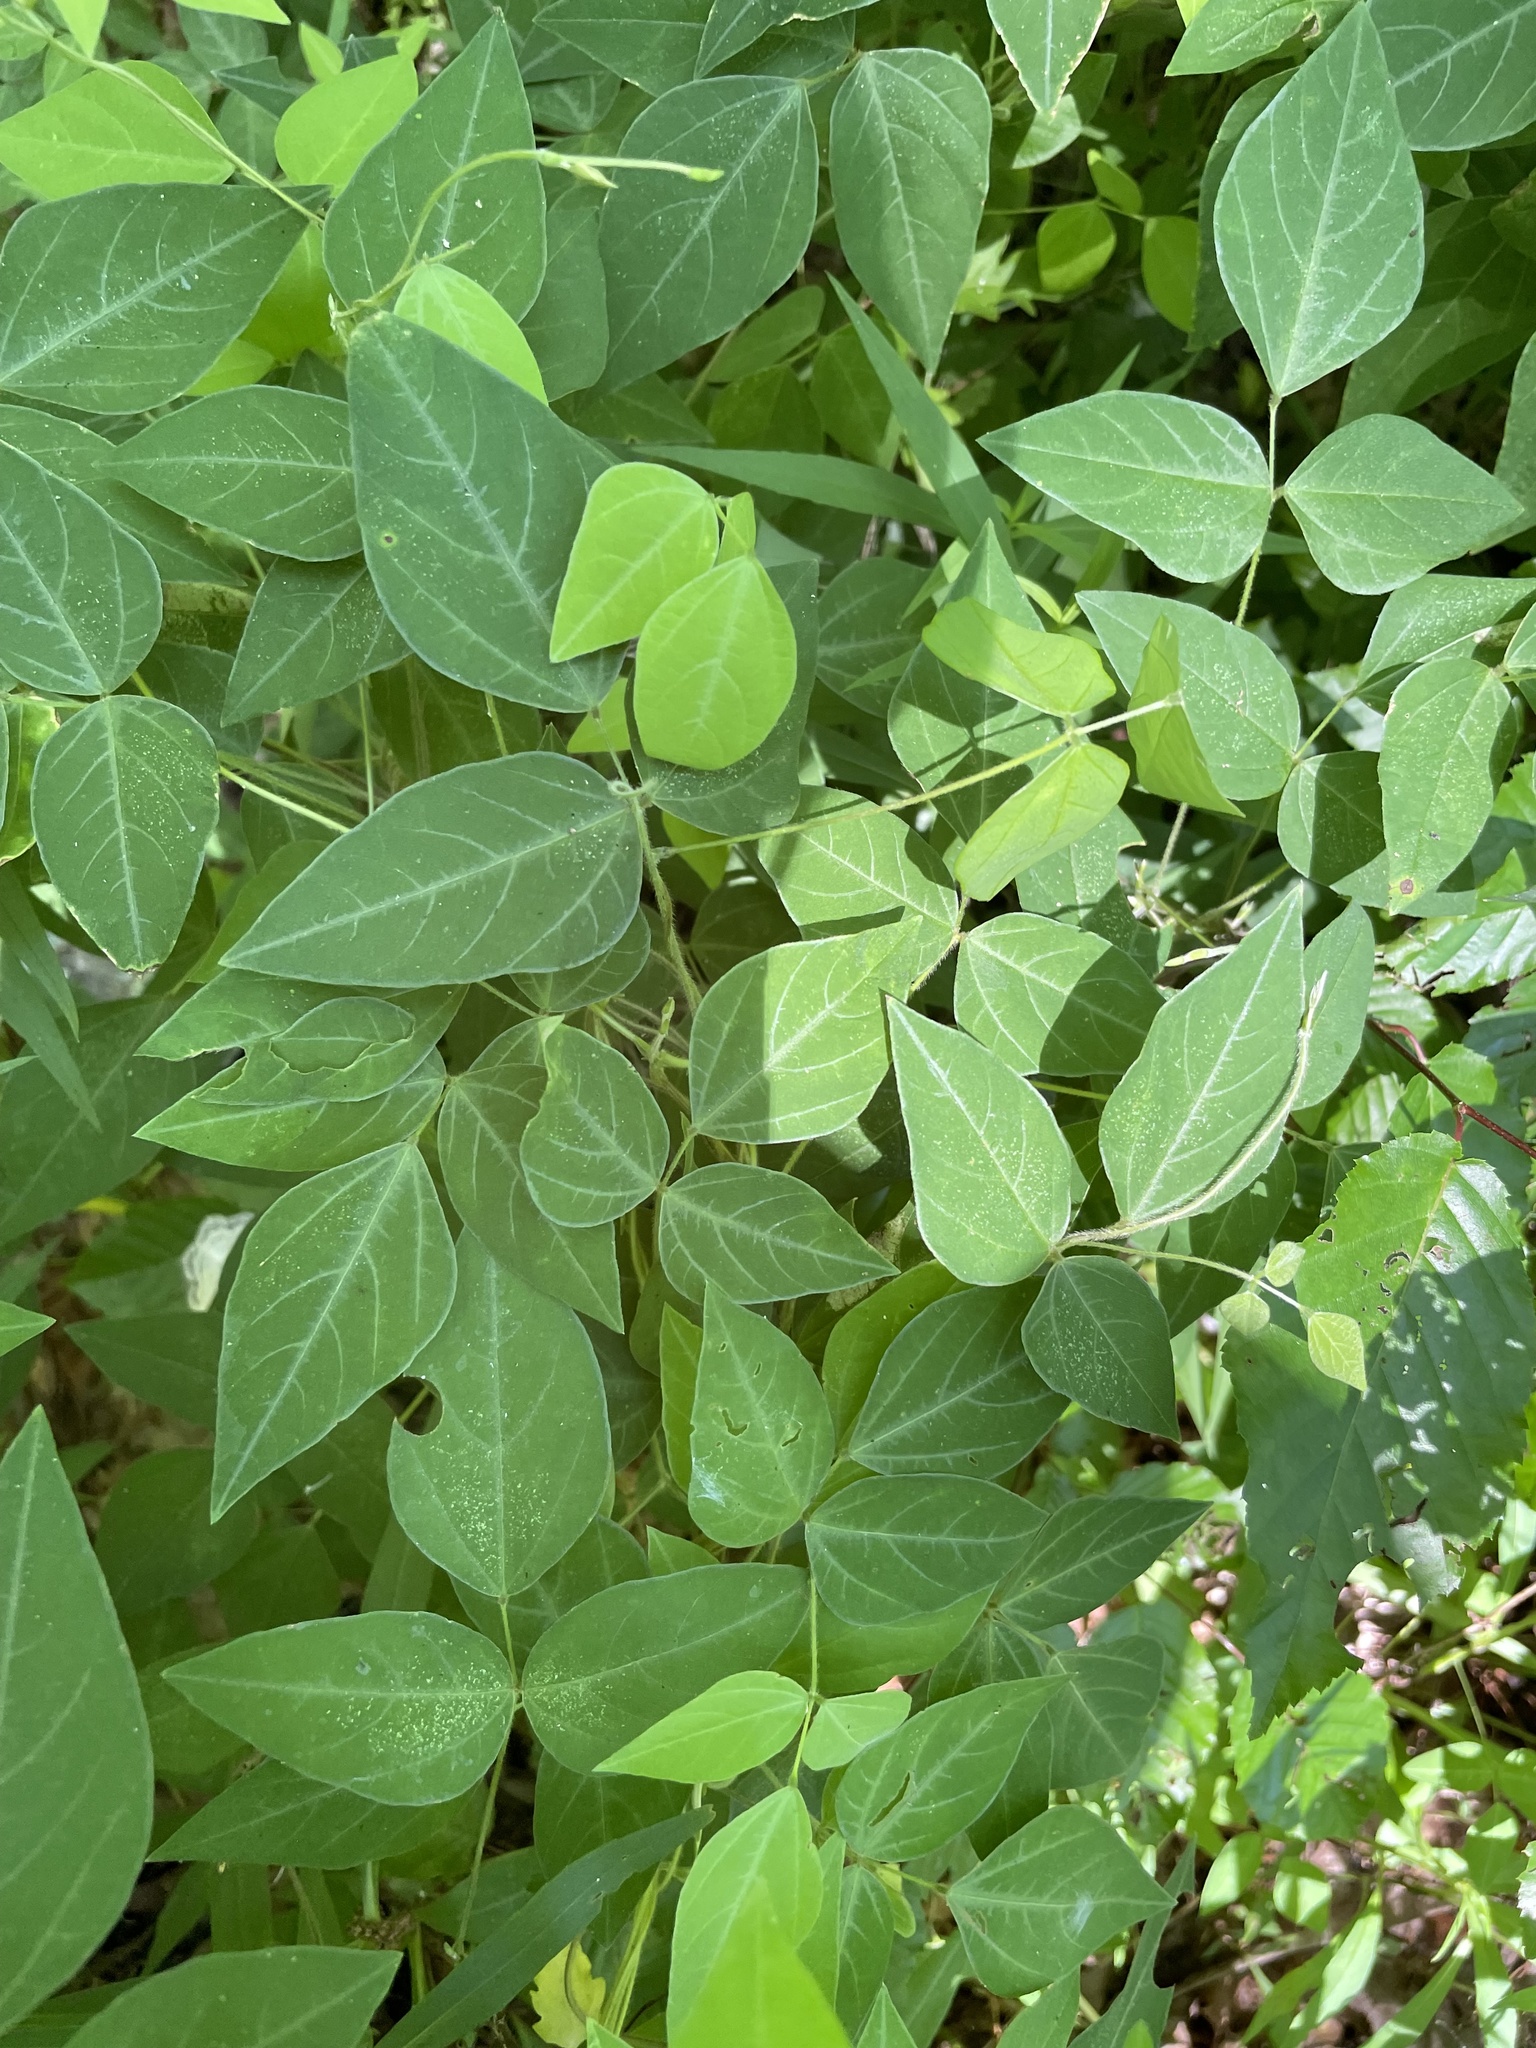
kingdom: Plantae
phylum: Tracheophyta
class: Magnoliopsida
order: Fabales
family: Fabaceae
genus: Amphicarpaea
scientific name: Amphicarpaea bracteata
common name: American hog peanut
